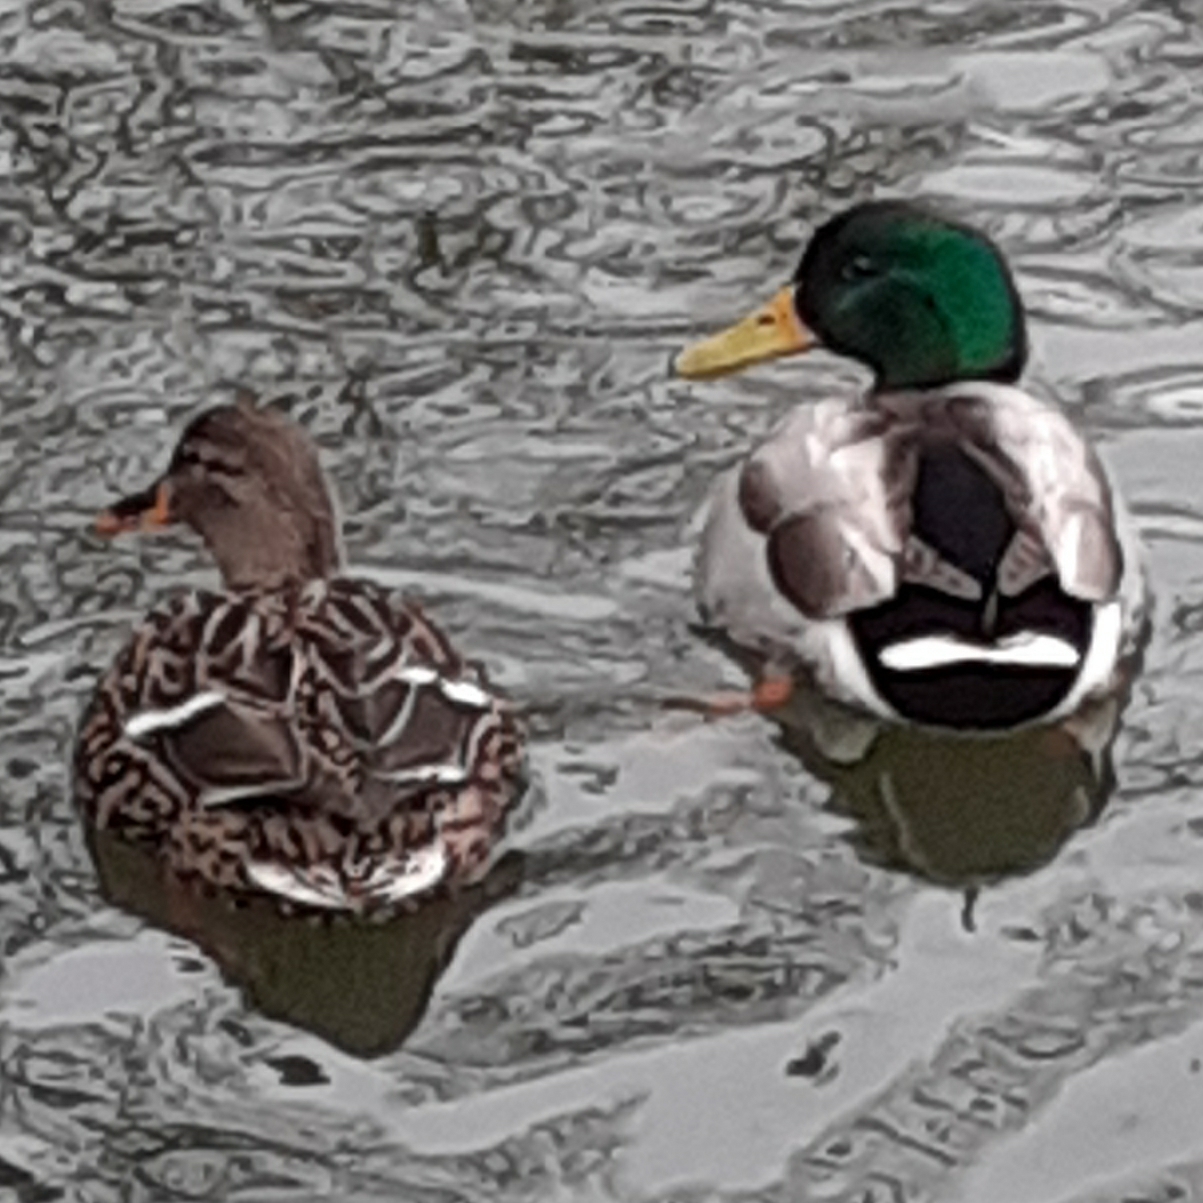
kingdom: Animalia
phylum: Chordata
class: Aves
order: Anseriformes
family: Anatidae
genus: Anas
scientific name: Anas platyrhynchos
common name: Mallard
